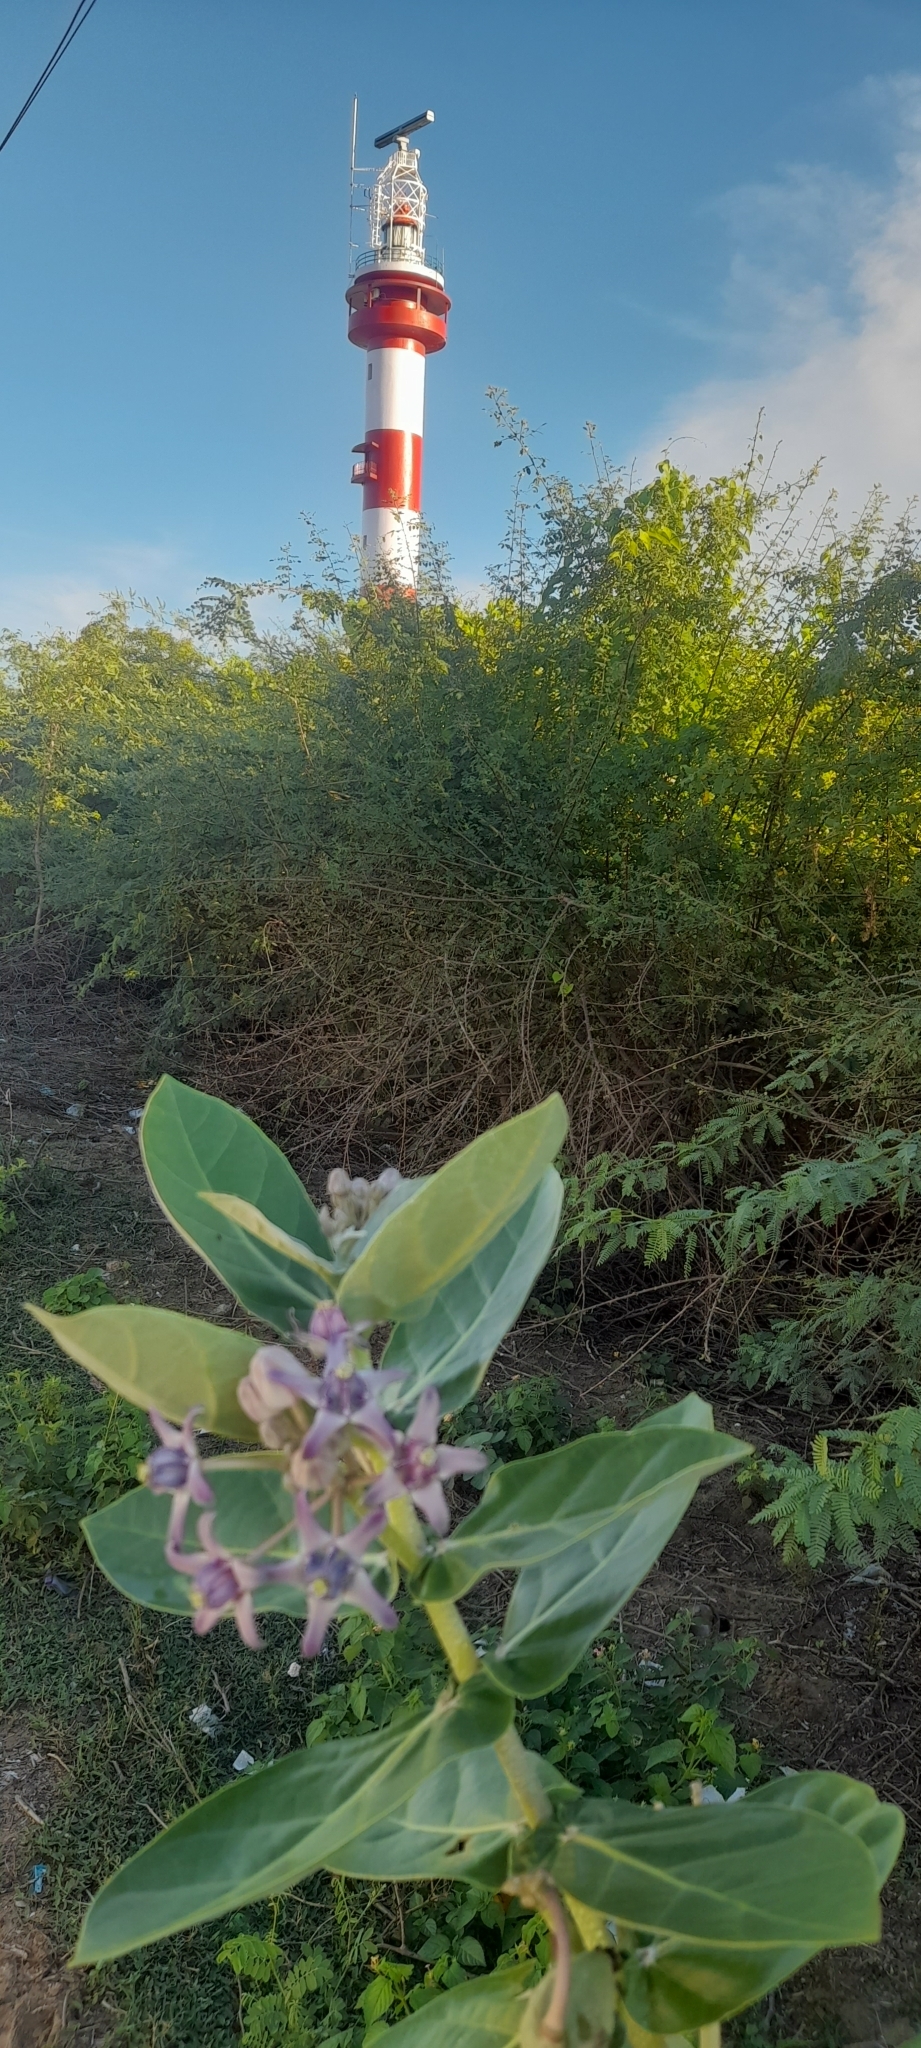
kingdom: Plantae
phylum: Tracheophyta
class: Magnoliopsida
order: Gentianales
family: Apocynaceae
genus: Calotropis
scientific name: Calotropis gigantea
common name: Crown flower
